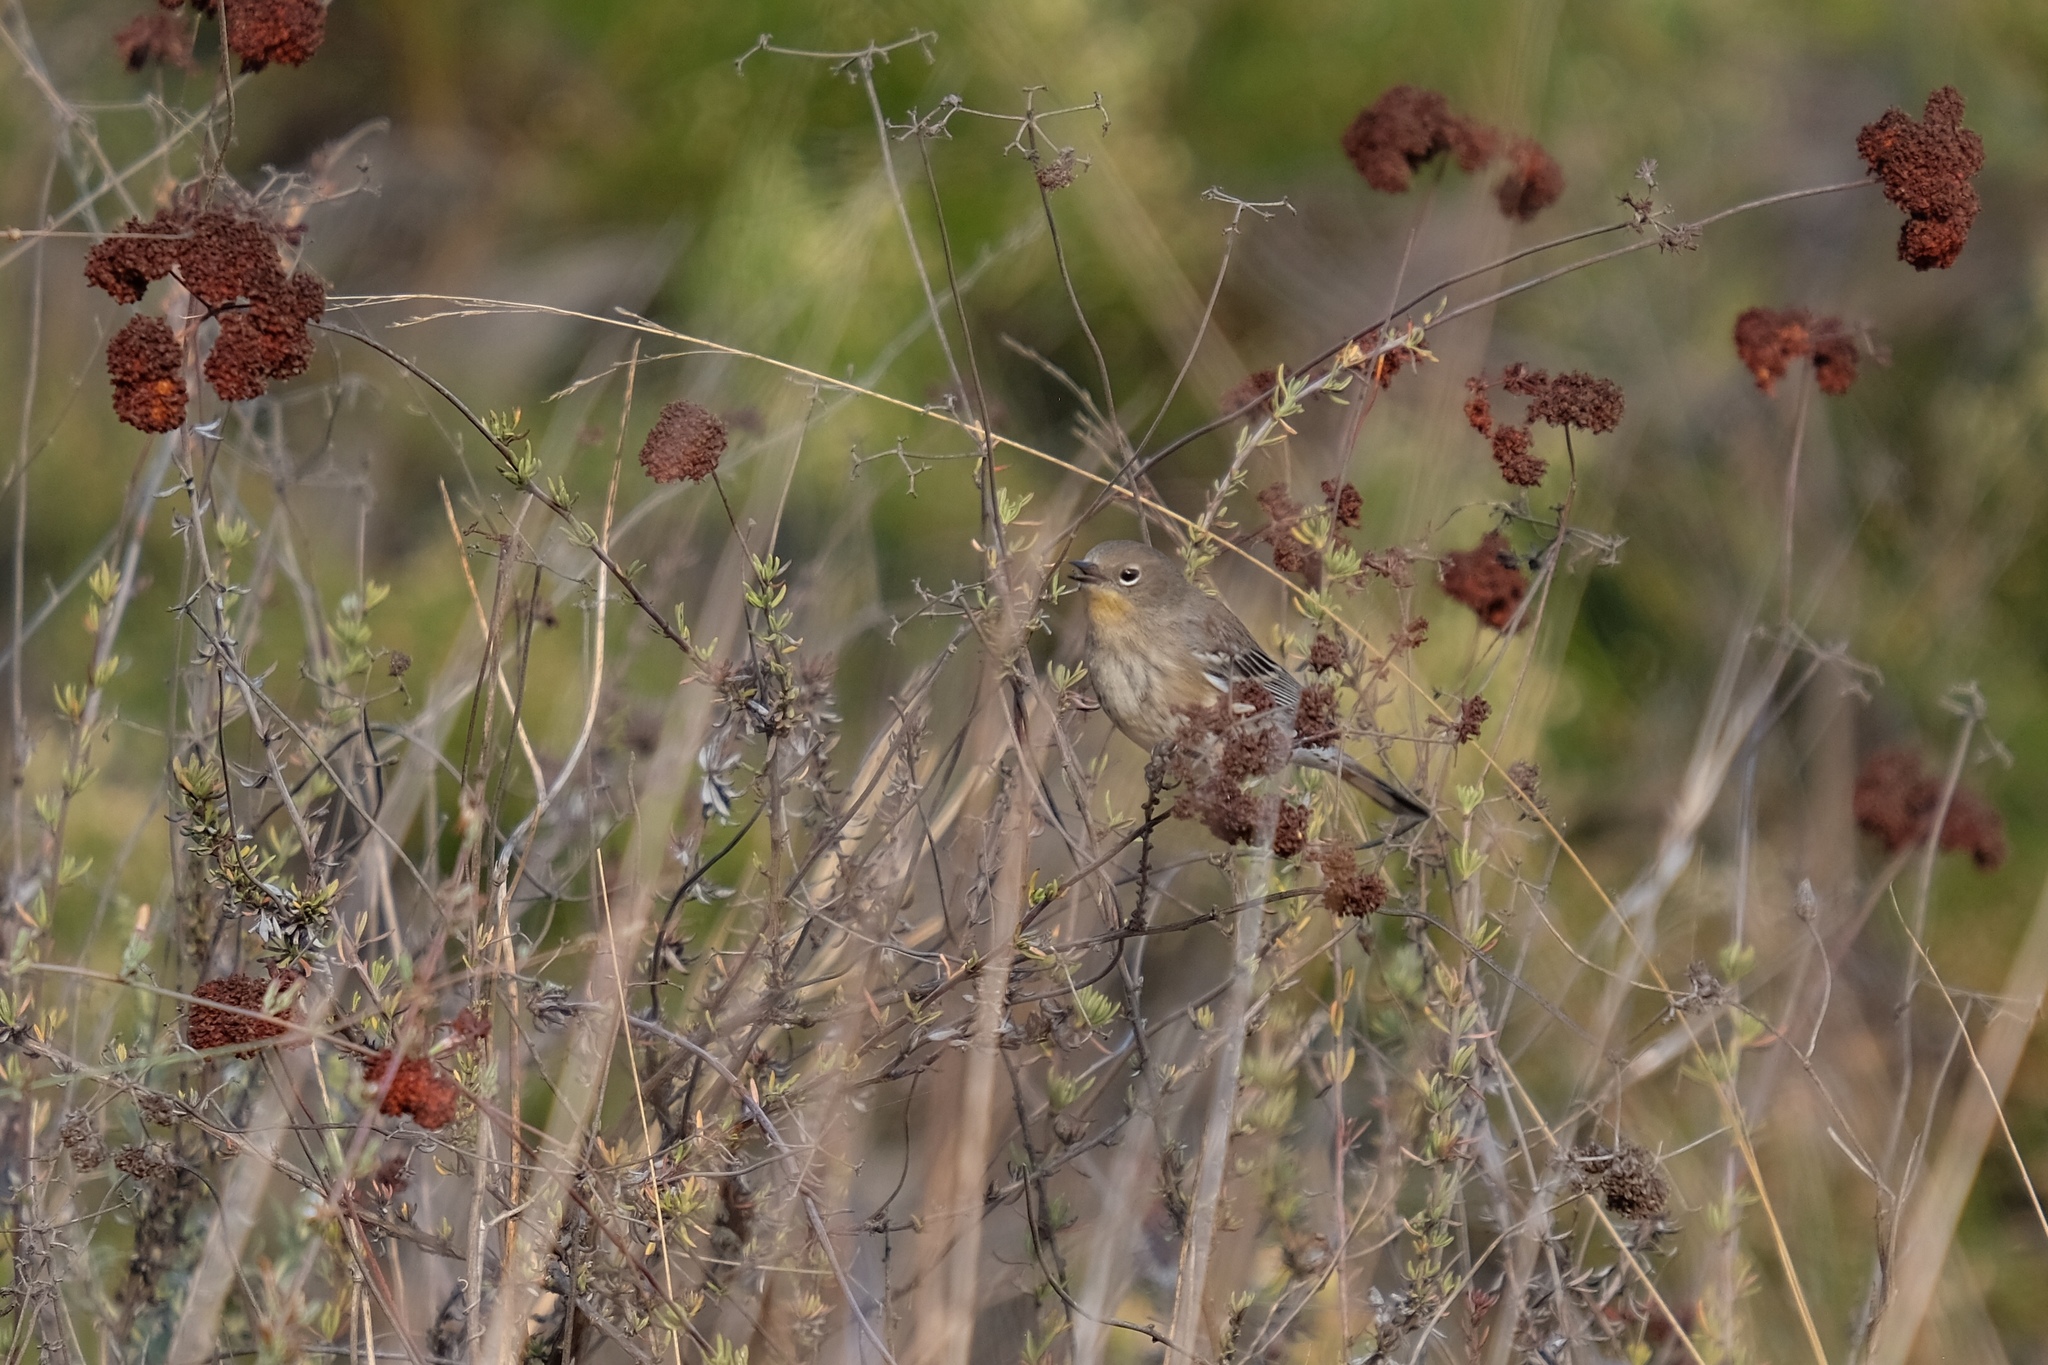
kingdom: Animalia
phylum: Chordata
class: Aves
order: Passeriformes
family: Parulidae
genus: Setophaga
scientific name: Setophaga coronata
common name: Myrtle warbler
